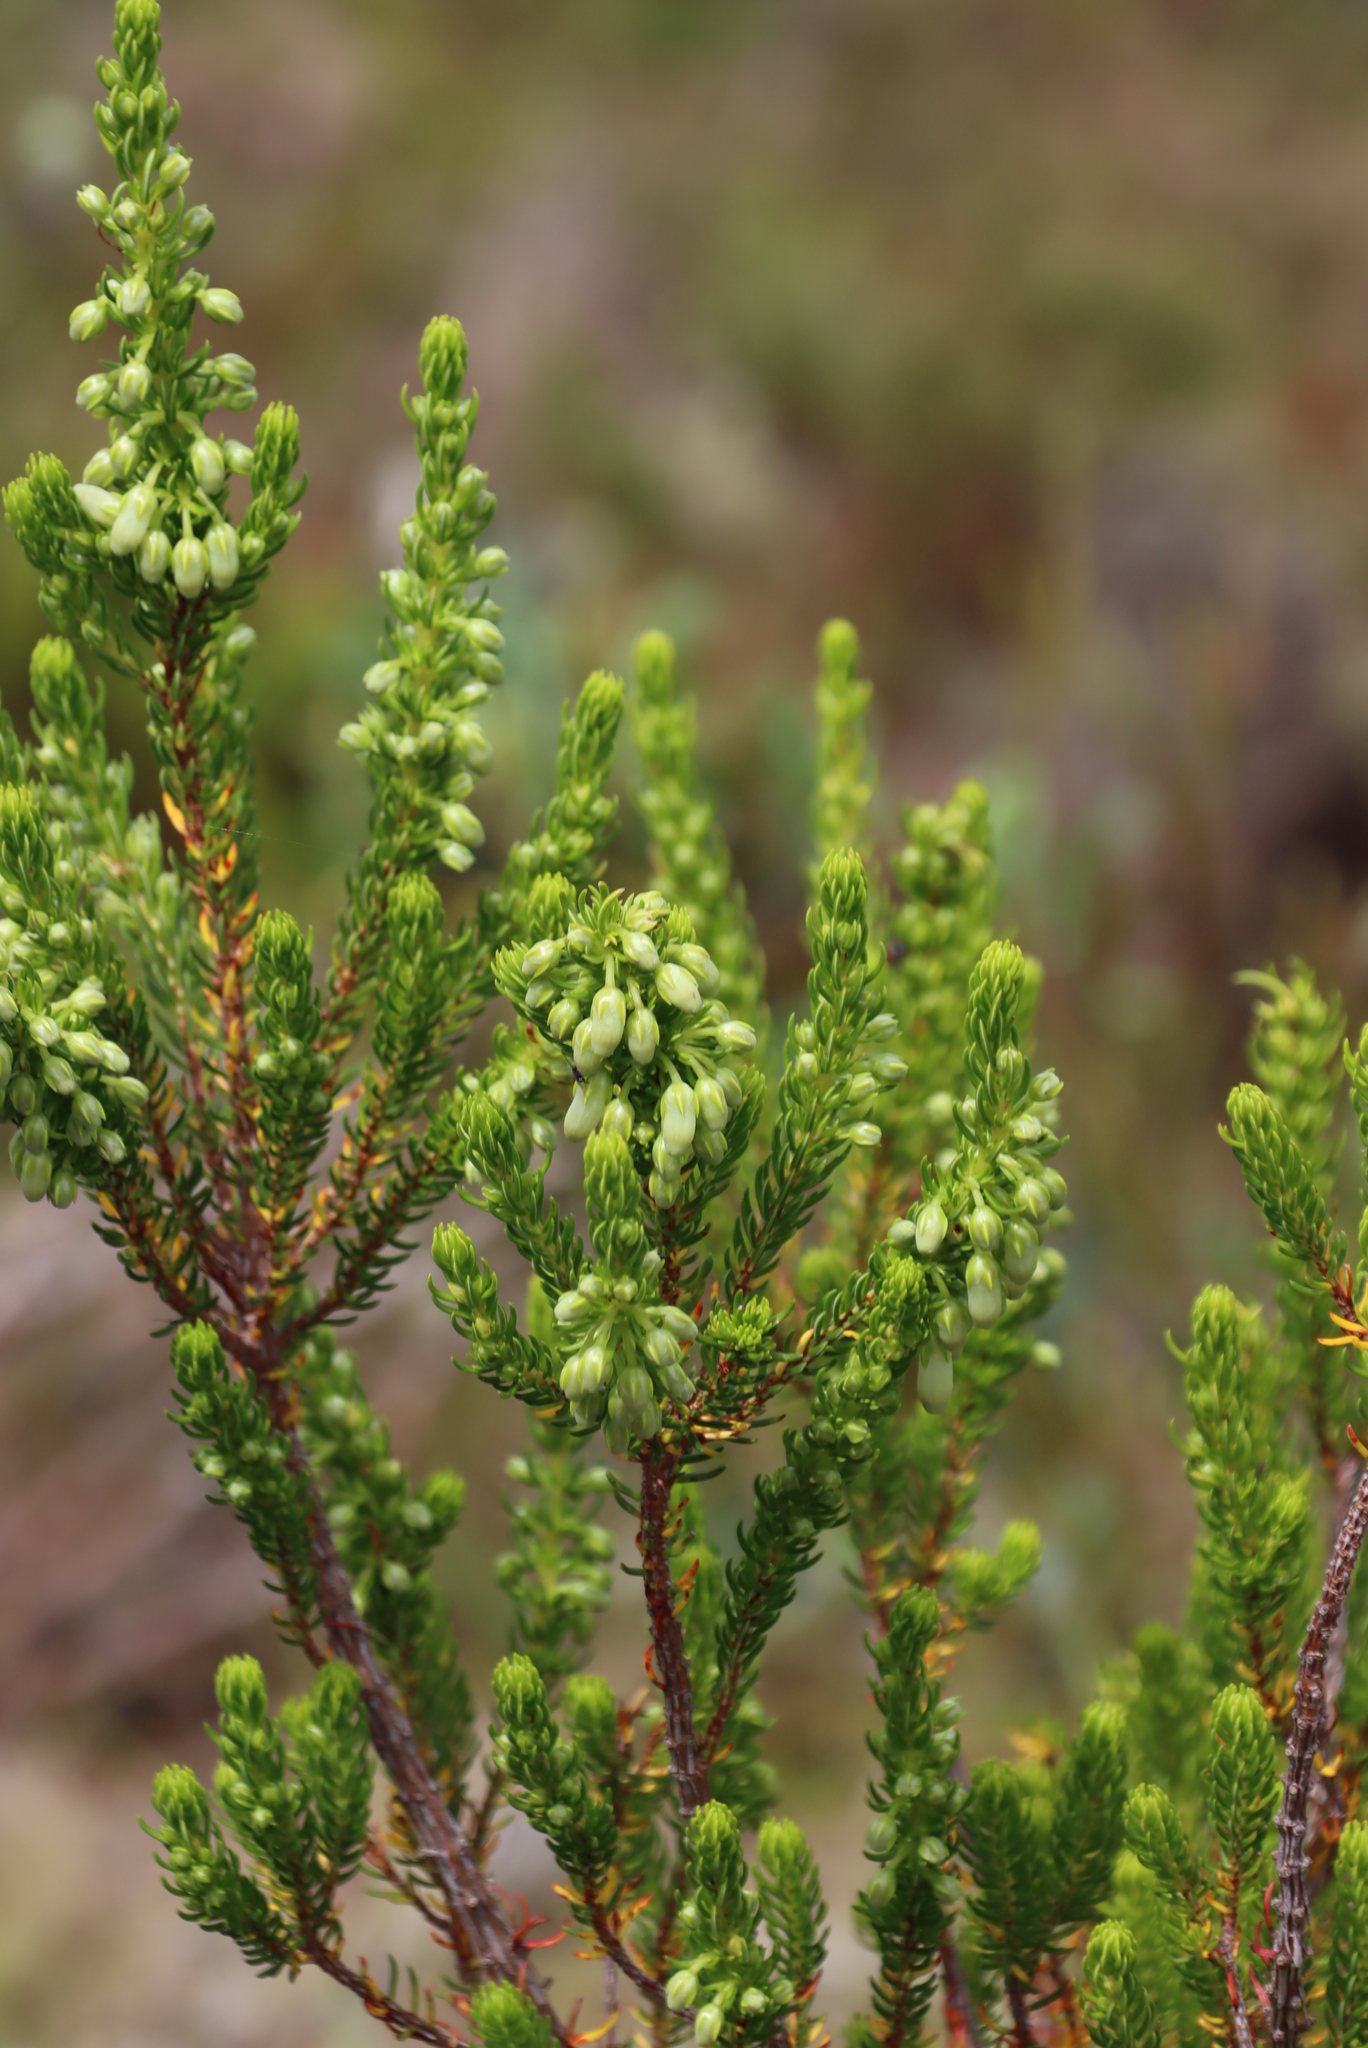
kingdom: Plantae
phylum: Tracheophyta
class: Magnoliopsida
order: Ericales
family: Ericaceae
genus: Erica
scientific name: Erica mammosa
